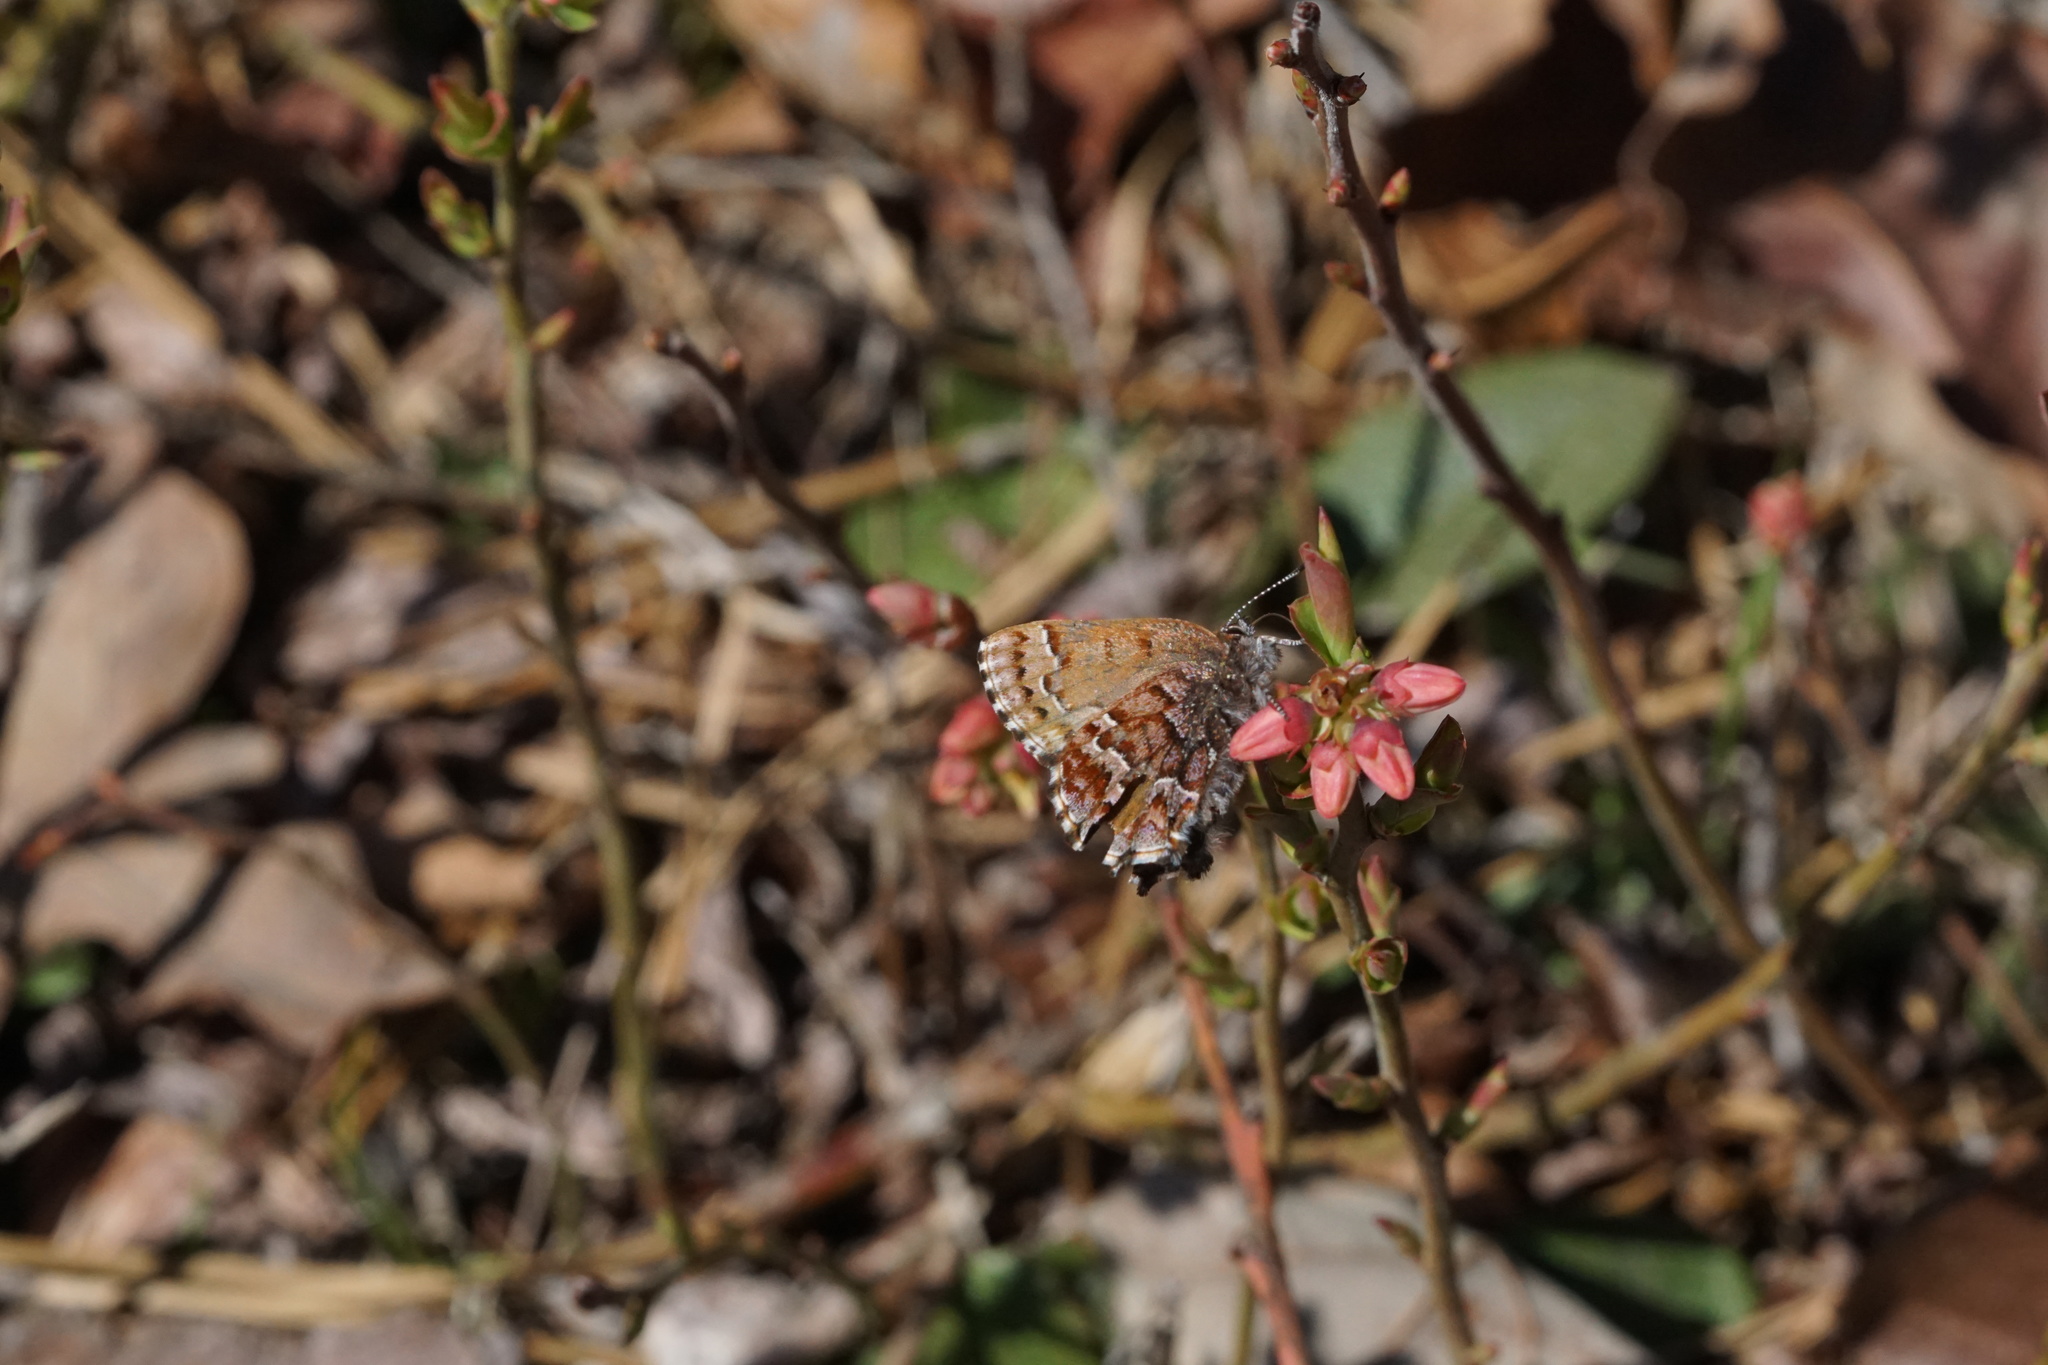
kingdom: Animalia
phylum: Arthropoda
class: Insecta
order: Lepidoptera
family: Lycaenidae
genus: Incisalia
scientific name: Incisalia niphon
